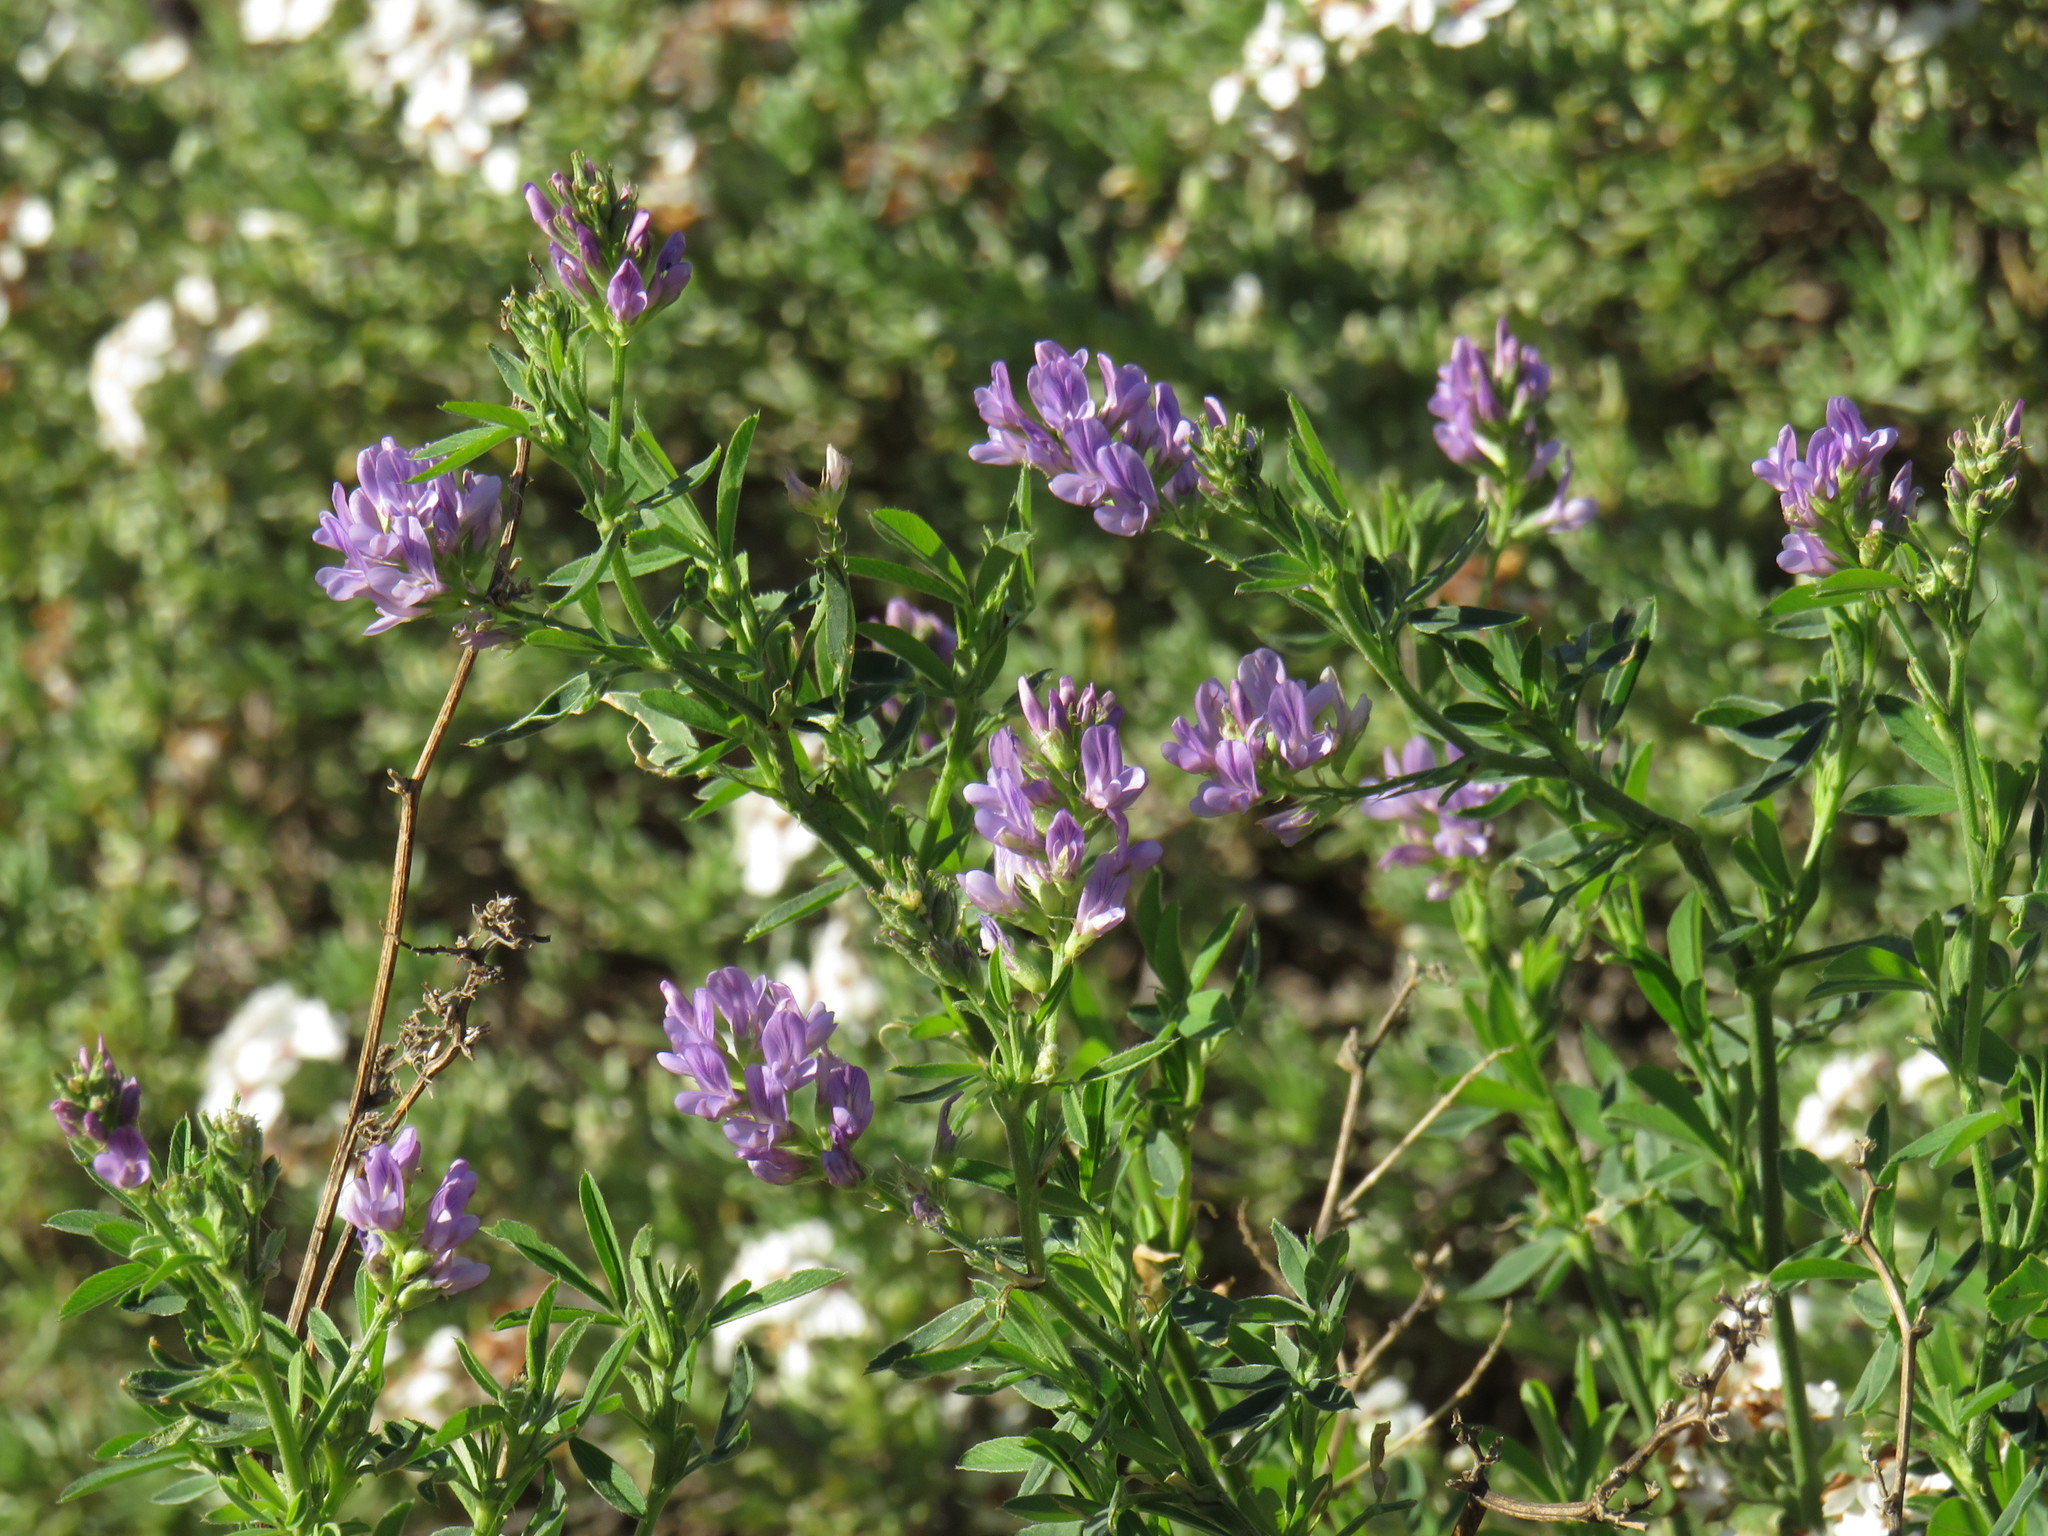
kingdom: Plantae
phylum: Tracheophyta
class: Magnoliopsida
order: Fabales
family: Fabaceae
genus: Medicago
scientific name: Medicago sativa
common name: Alfalfa
